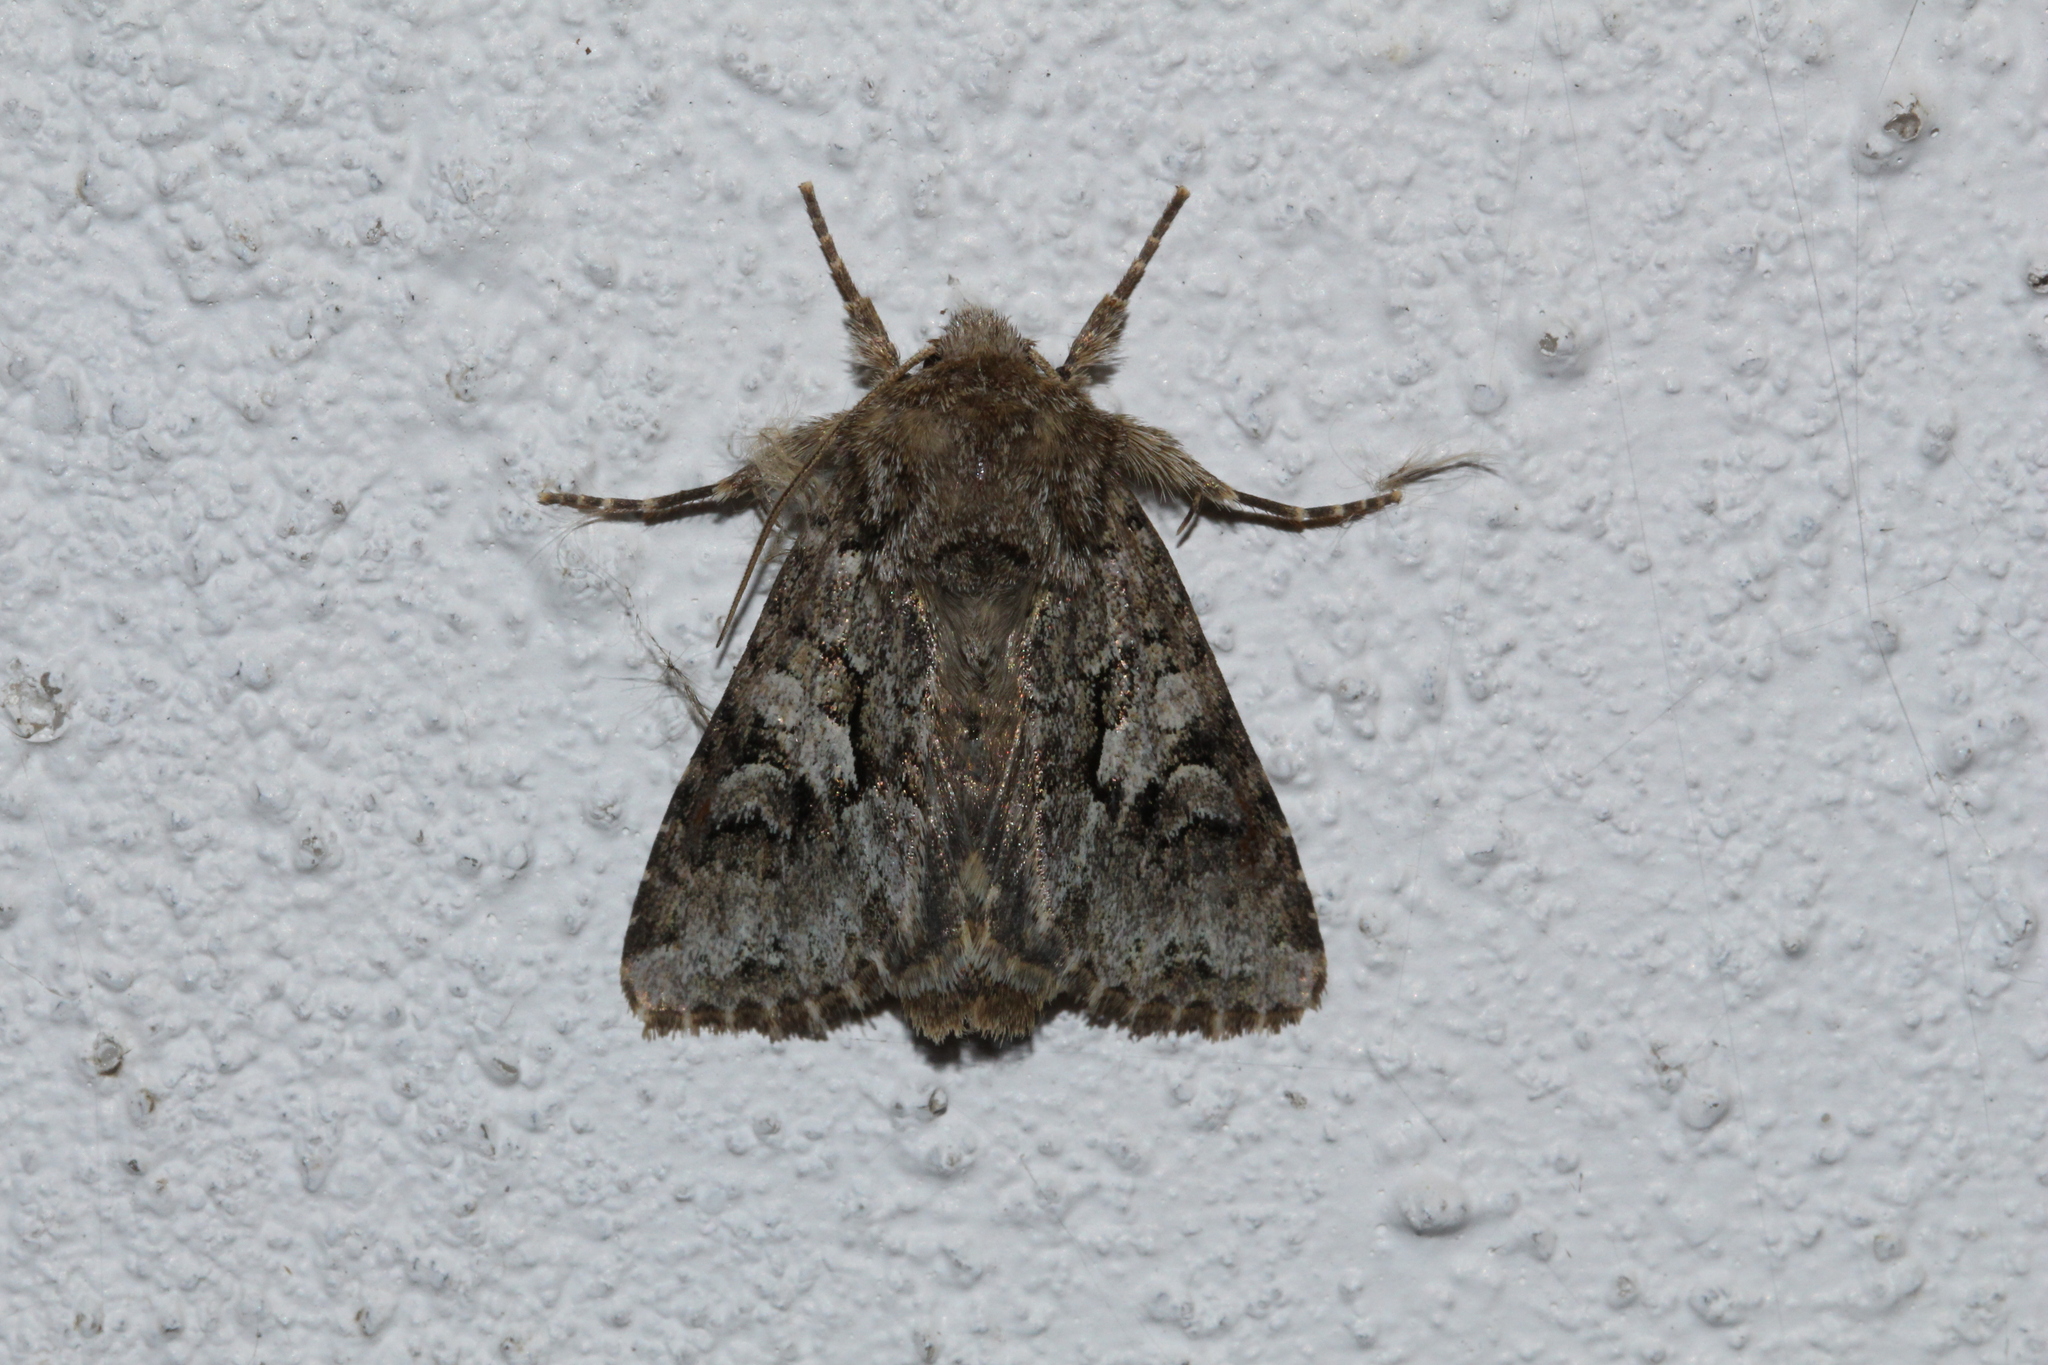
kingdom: Animalia
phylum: Arthropoda
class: Insecta
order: Lepidoptera
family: Noctuidae
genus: Hada
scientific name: Hada plebeja
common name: Shears
